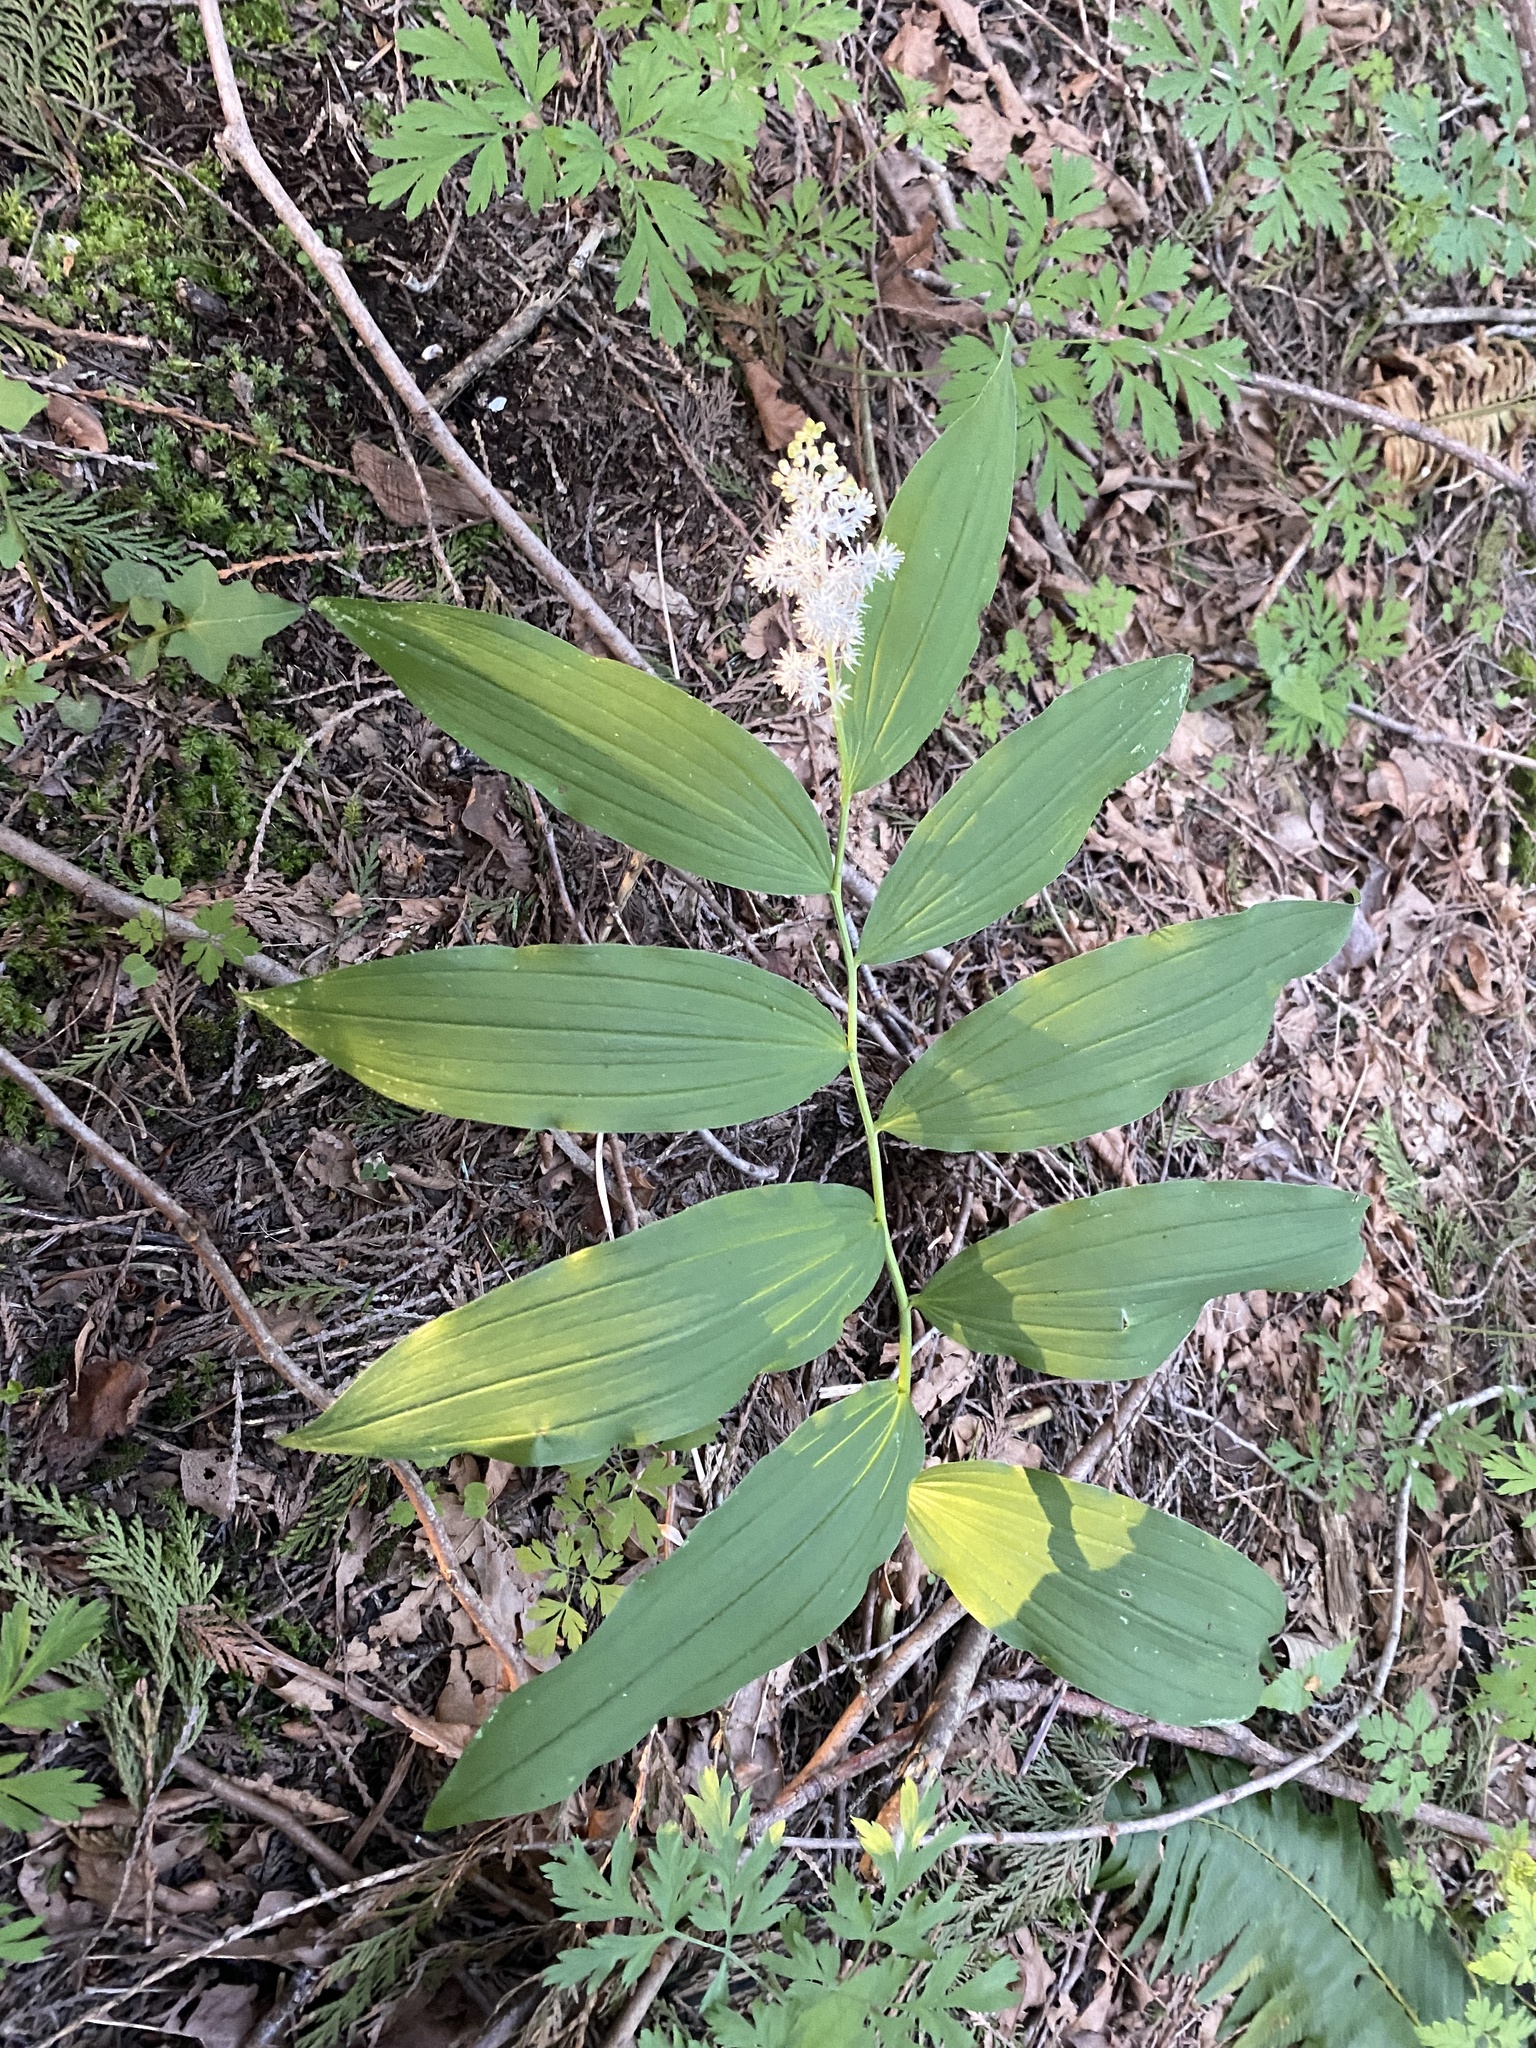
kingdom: Plantae
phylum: Tracheophyta
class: Liliopsida
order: Asparagales
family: Asparagaceae
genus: Maianthemum
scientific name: Maianthemum racemosum
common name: False spikenard
